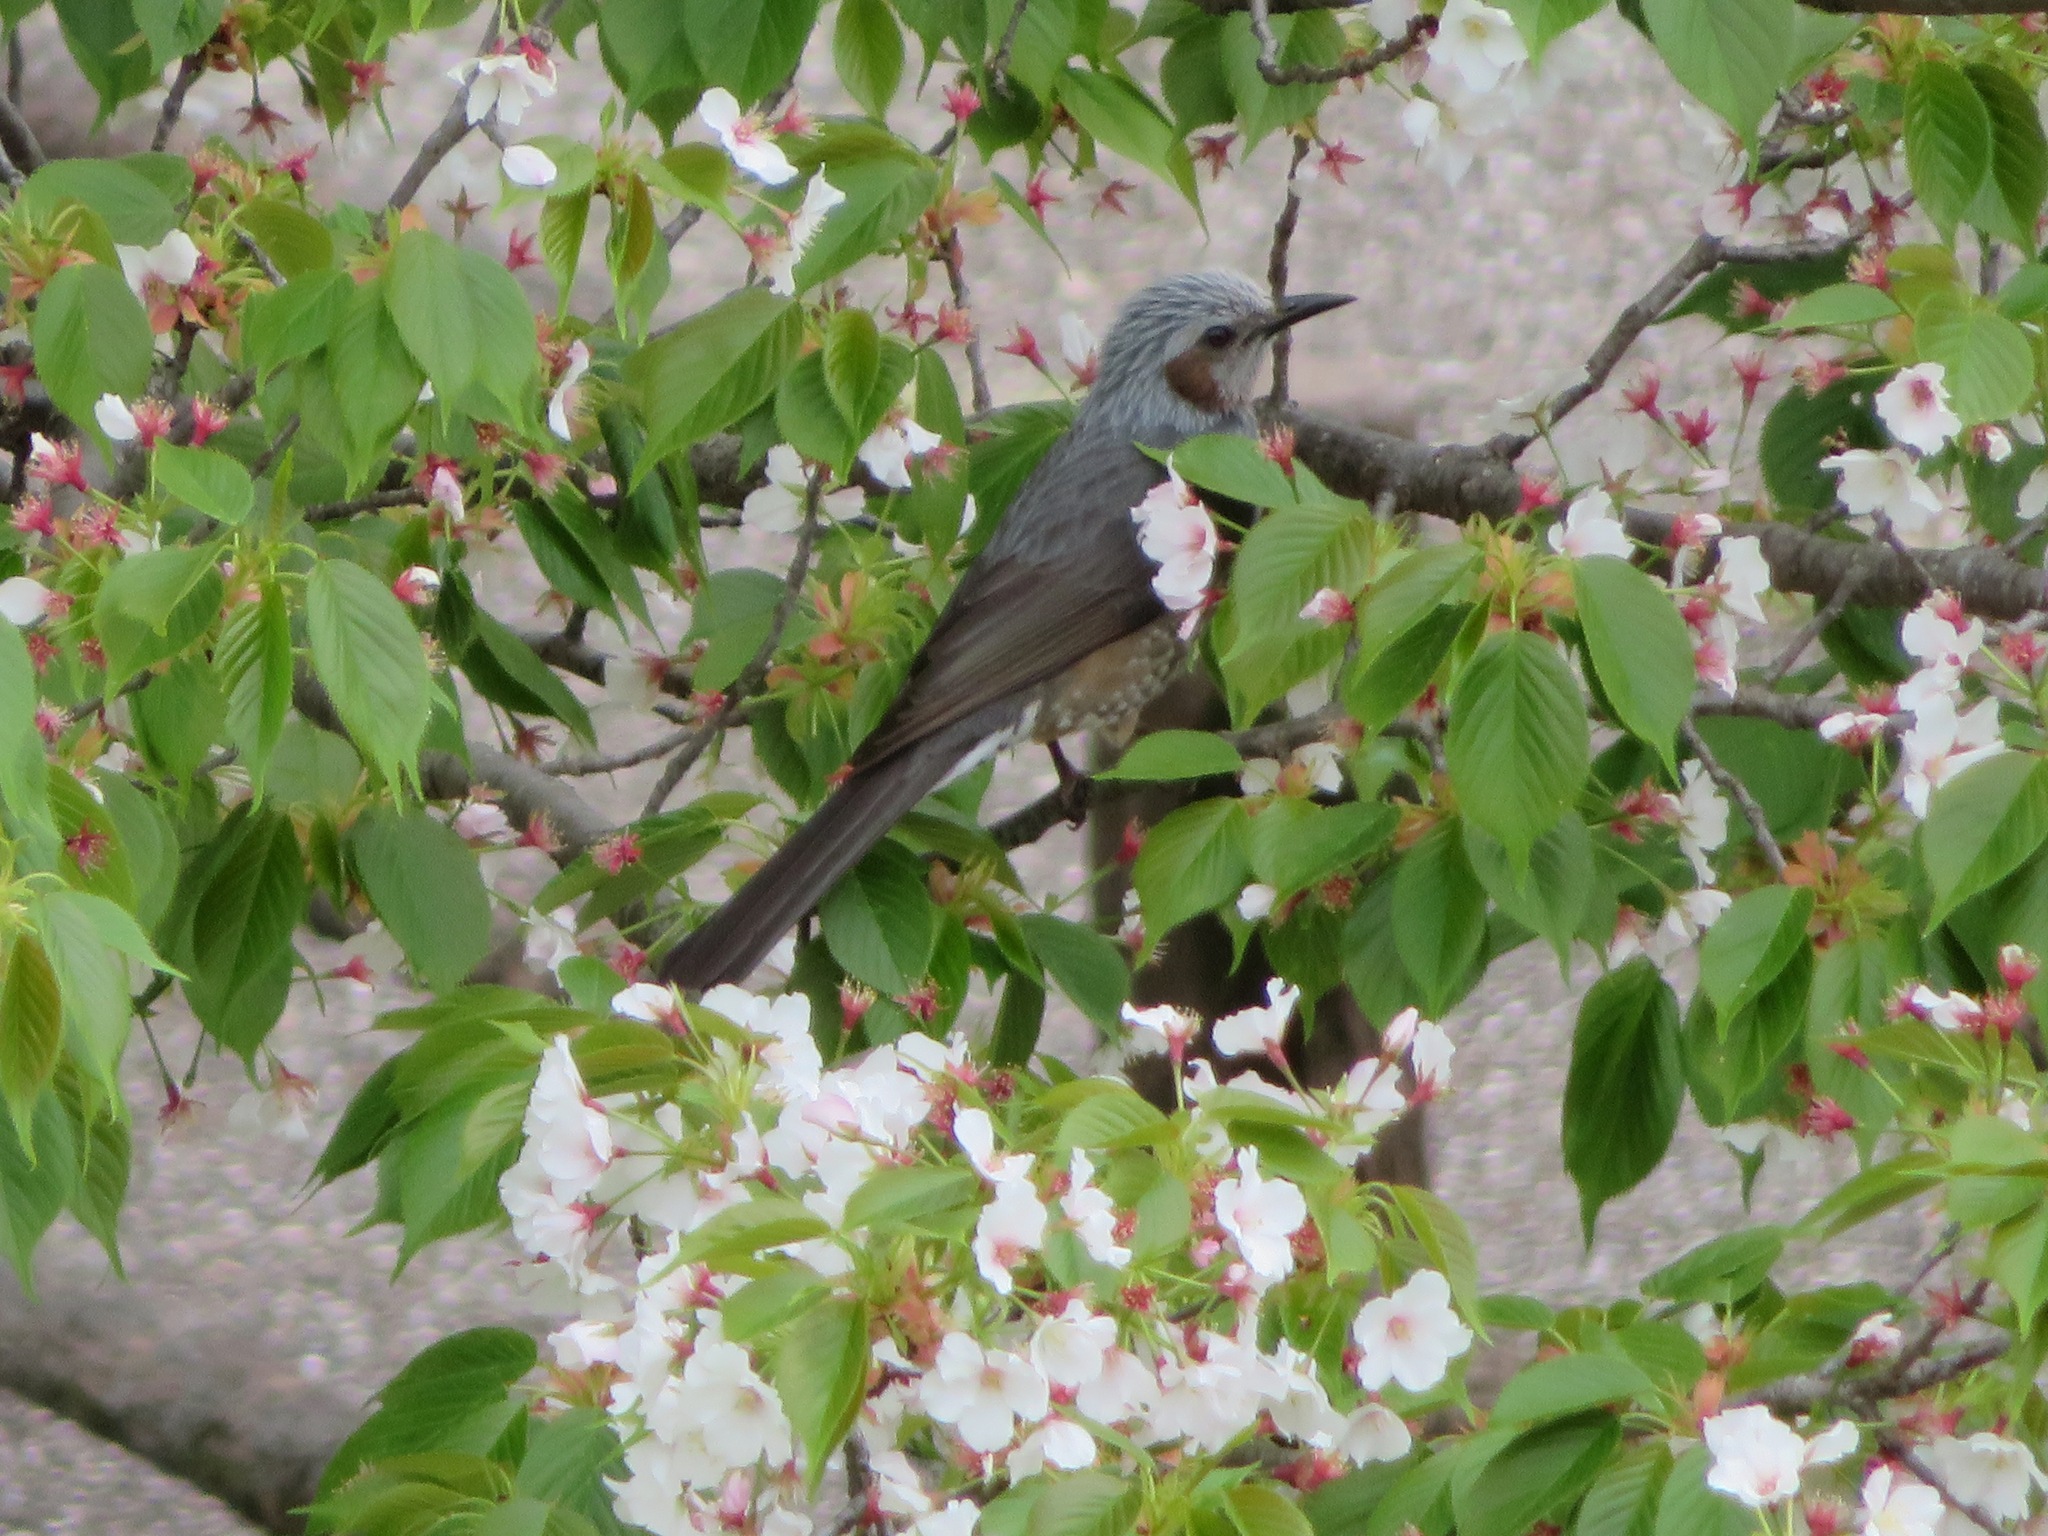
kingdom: Animalia
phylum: Chordata
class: Aves
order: Passeriformes
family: Pycnonotidae
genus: Hypsipetes
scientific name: Hypsipetes amaurotis
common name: Brown-eared bulbul
